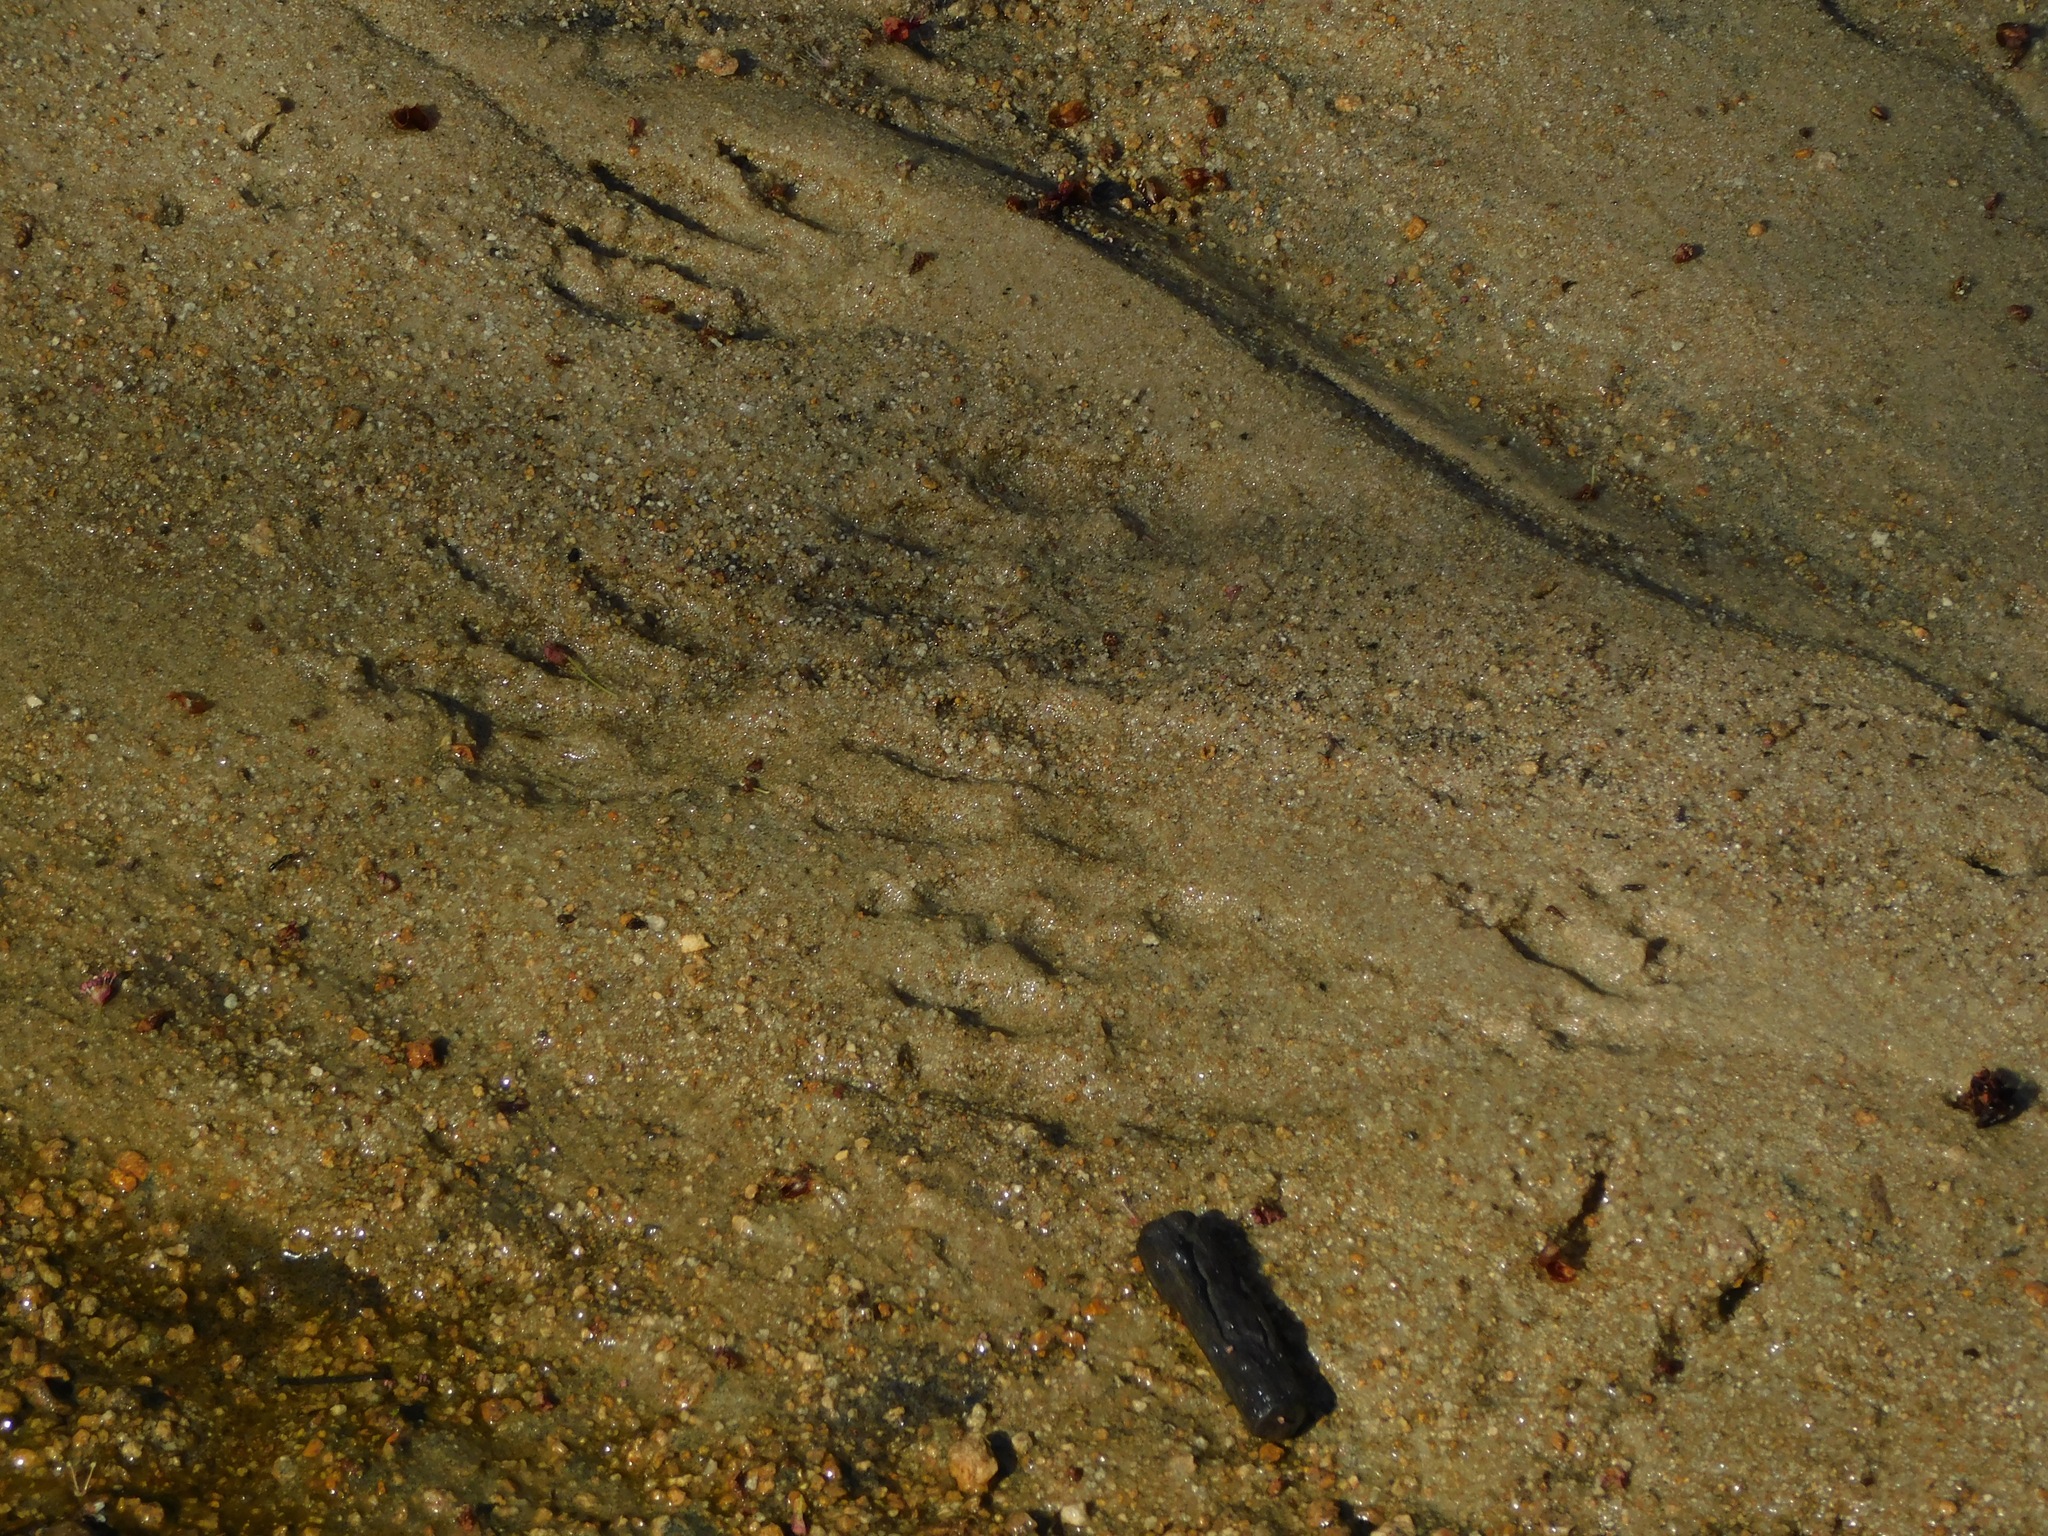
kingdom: Animalia
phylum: Chordata
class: Mammalia
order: Carnivora
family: Procyonidae
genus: Procyon
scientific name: Procyon lotor
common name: Raccoon
